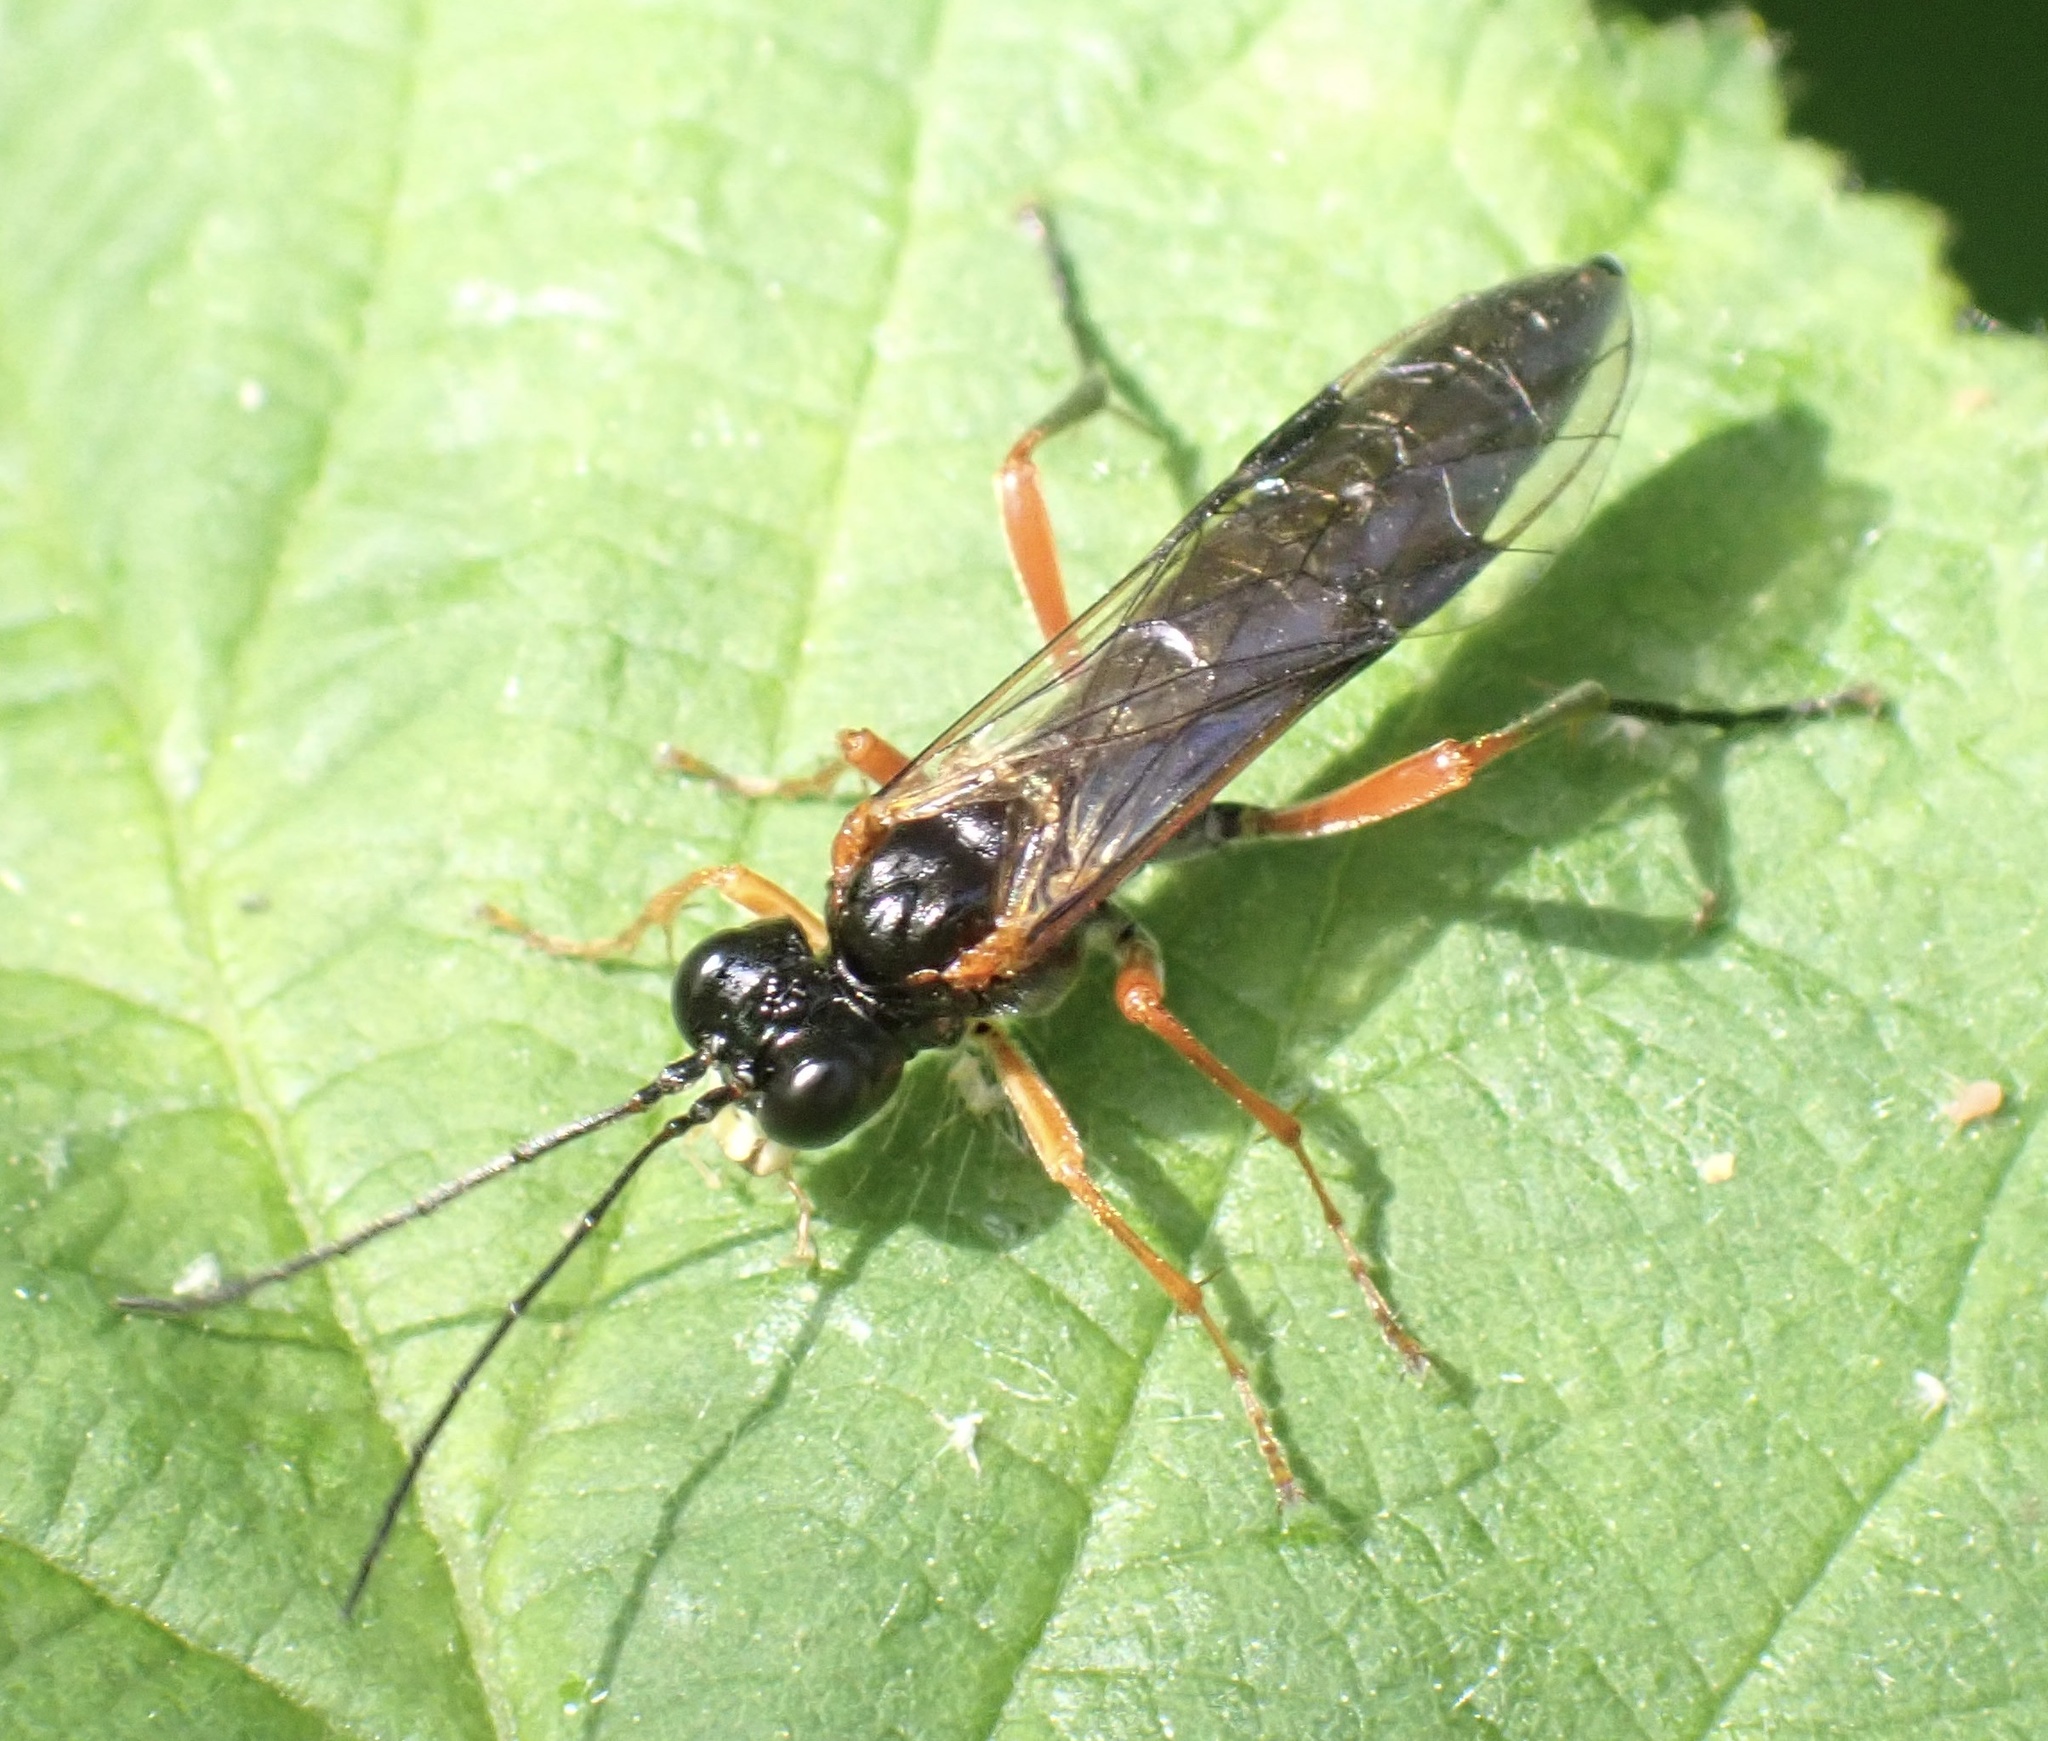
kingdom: Animalia
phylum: Arthropoda
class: Insecta
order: Hymenoptera
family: Tenthredinidae
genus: Tenthredo
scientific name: Tenthredo atra
